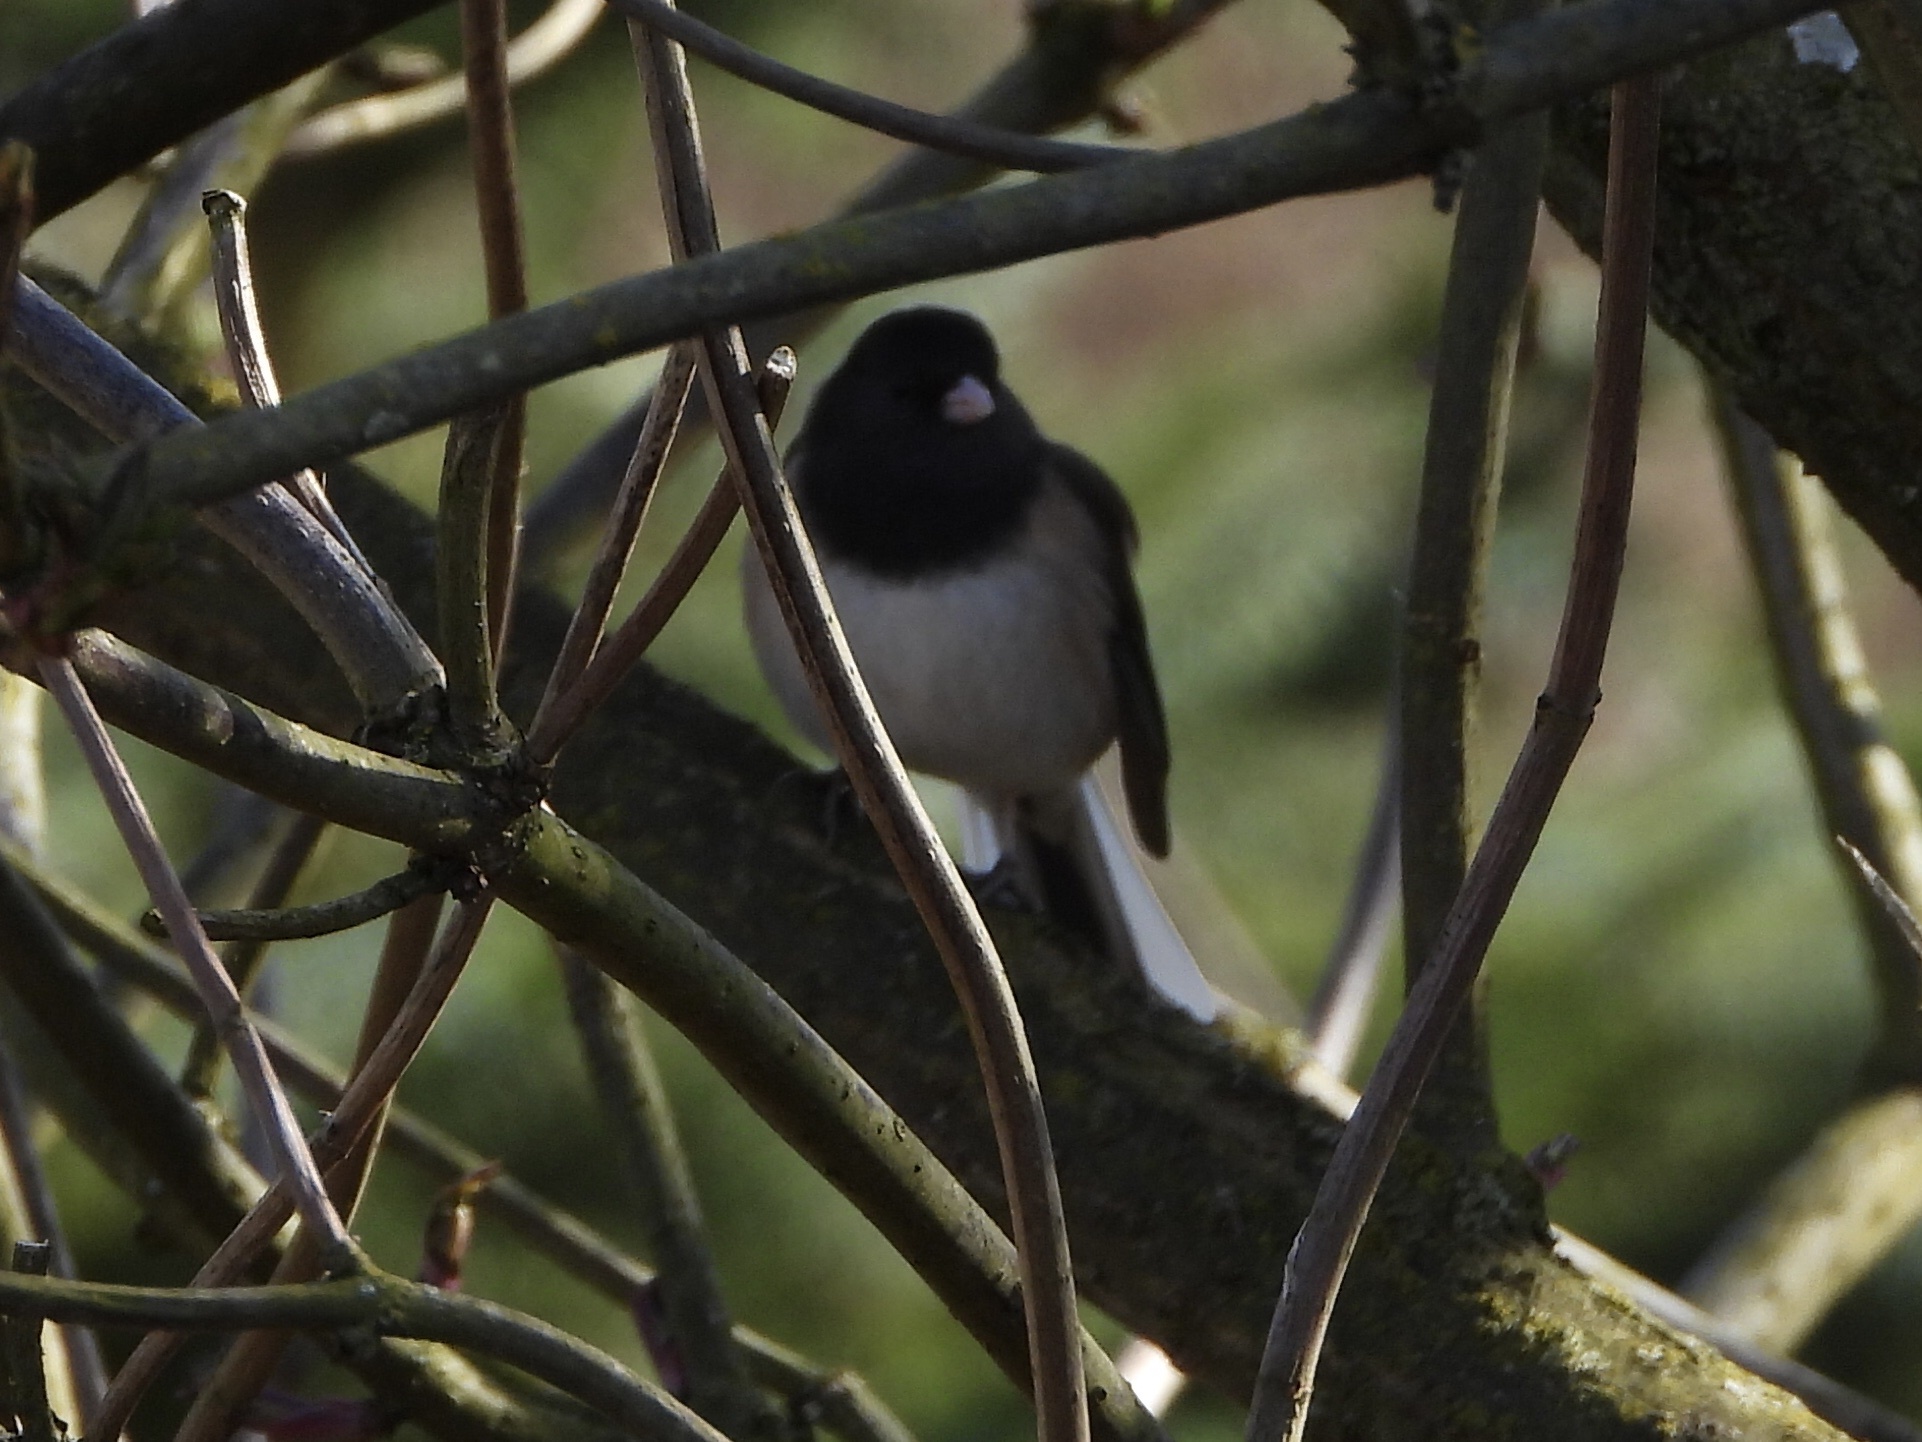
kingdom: Animalia
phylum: Chordata
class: Aves
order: Passeriformes
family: Passerellidae
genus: Junco
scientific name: Junco hyemalis
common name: Dark-eyed junco
